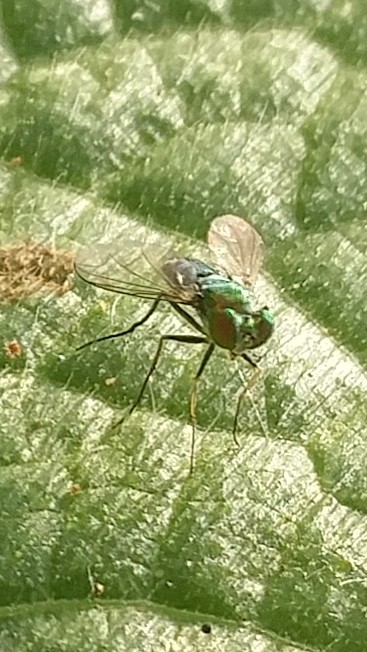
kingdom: Animalia
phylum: Arthropoda
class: Insecta
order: Diptera
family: Dolichopodidae
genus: Condylostylus
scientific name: Condylostylus longicornis
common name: Long-legged fly
